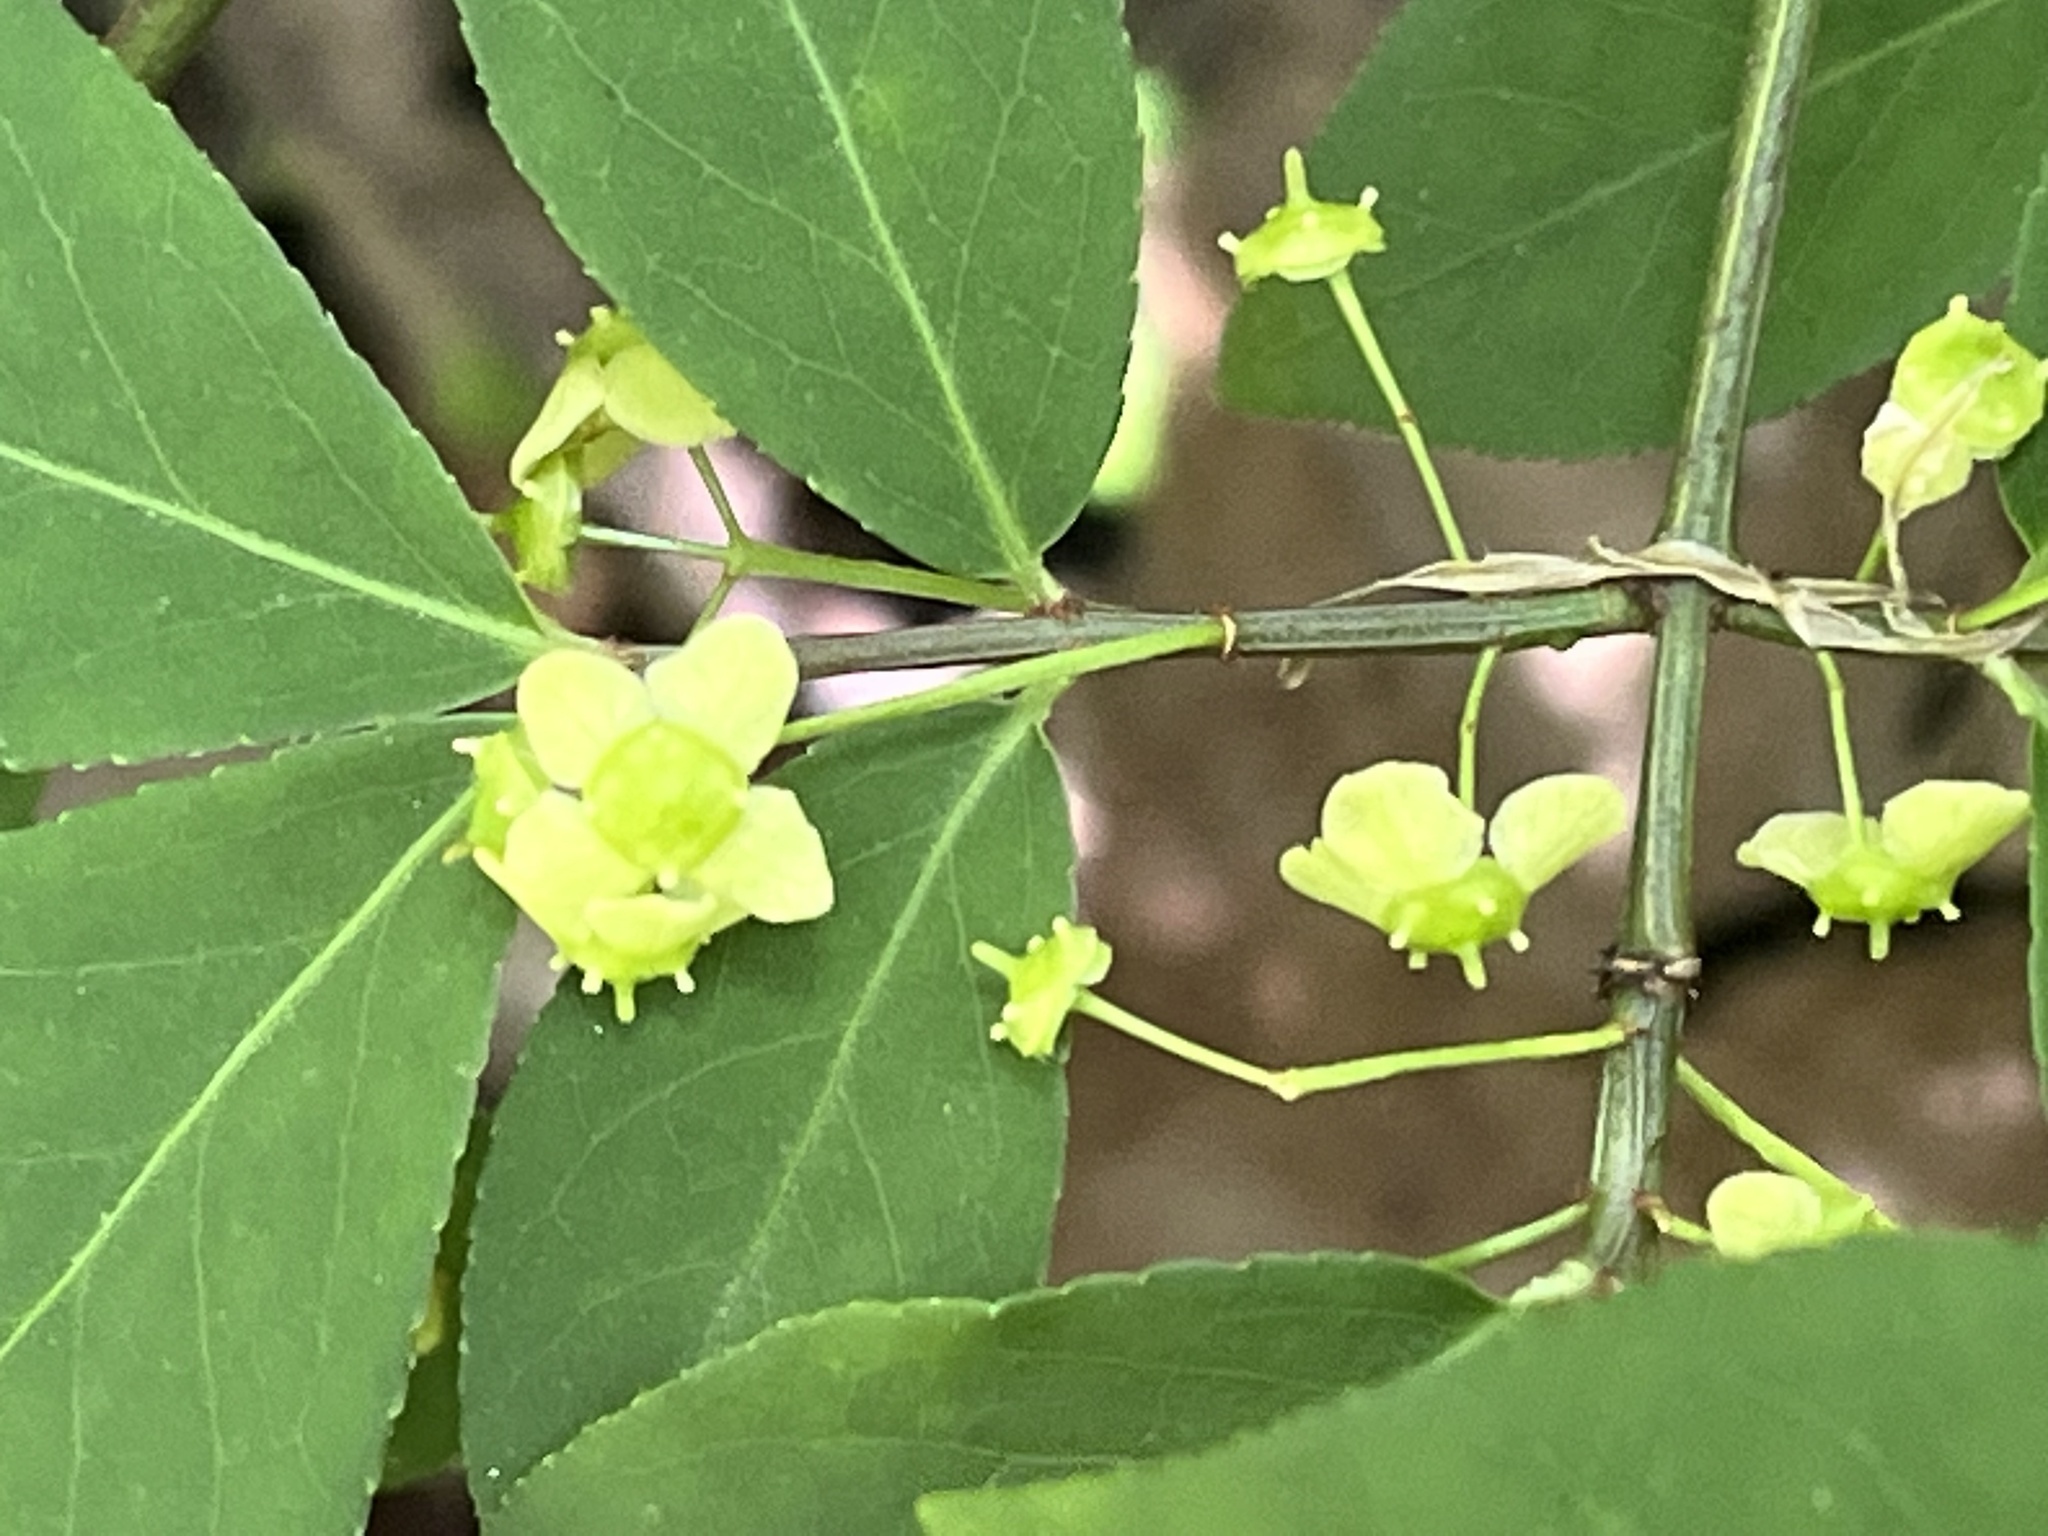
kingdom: Plantae
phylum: Tracheophyta
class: Magnoliopsida
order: Celastrales
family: Celastraceae
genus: Euonymus
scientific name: Euonymus alatus
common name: Winged euonymus
